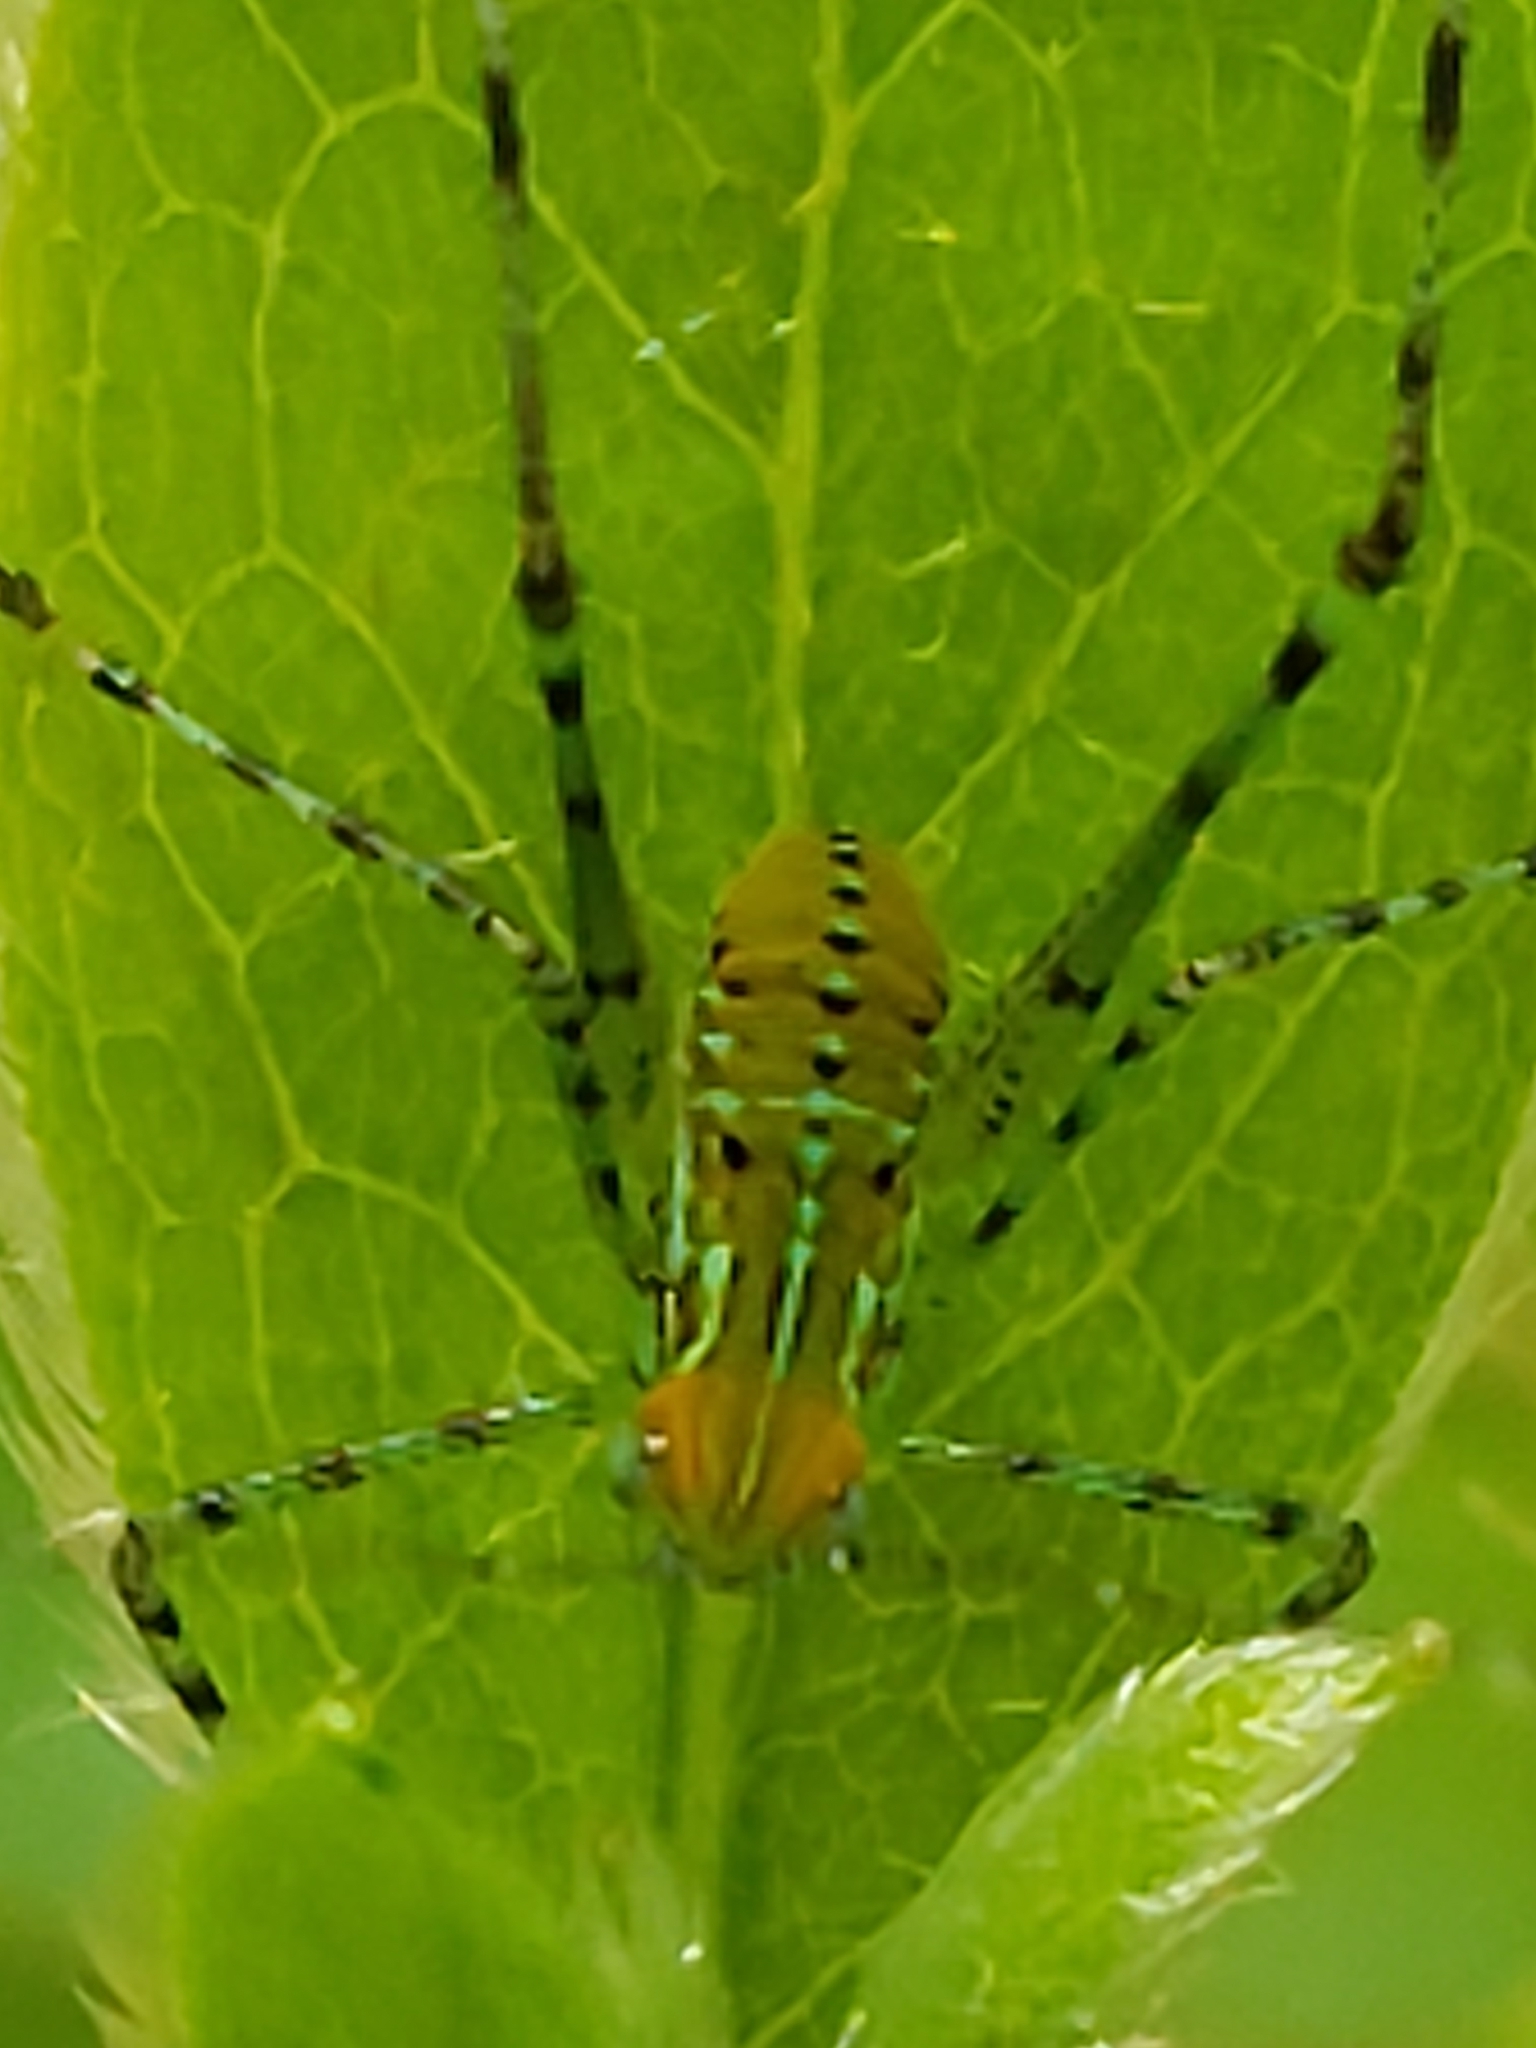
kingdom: Animalia
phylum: Arthropoda
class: Insecta
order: Orthoptera
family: Tettigoniidae
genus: Stilpnochlora
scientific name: Stilpnochlora couloniana
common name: Giant katydid
